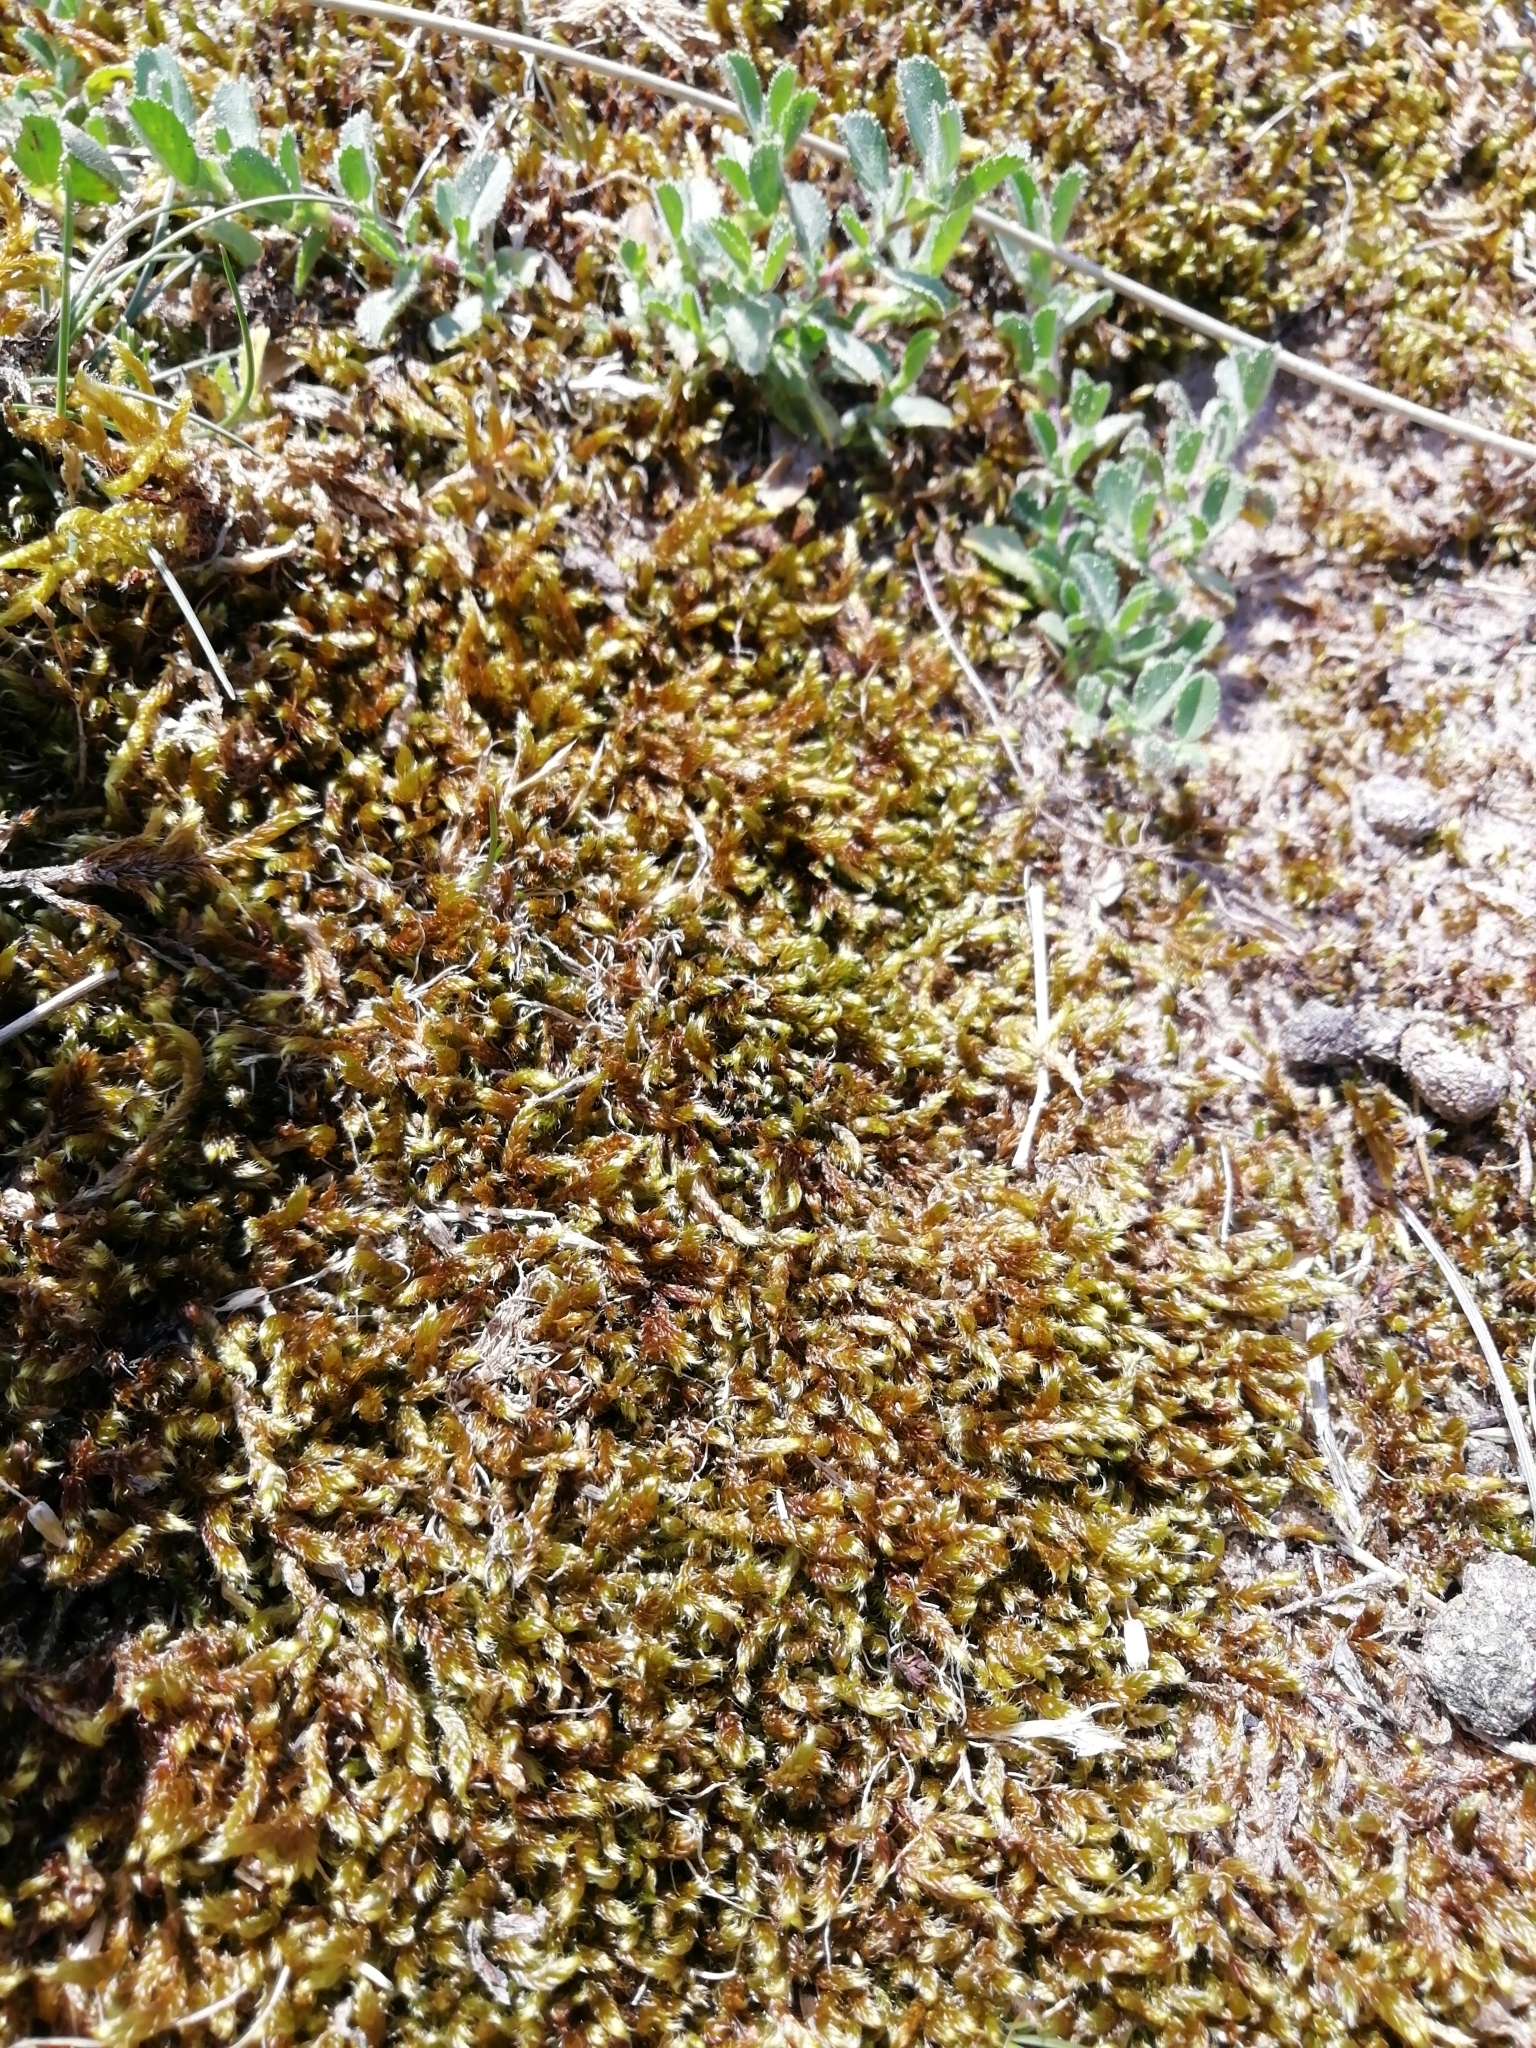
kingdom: Plantae
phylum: Bryophyta
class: Bryopsida
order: Hypnales
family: Hypnaceae
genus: Hypnum
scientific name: Hypnum cupressiforme
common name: Cypress-leaved plait-moss
